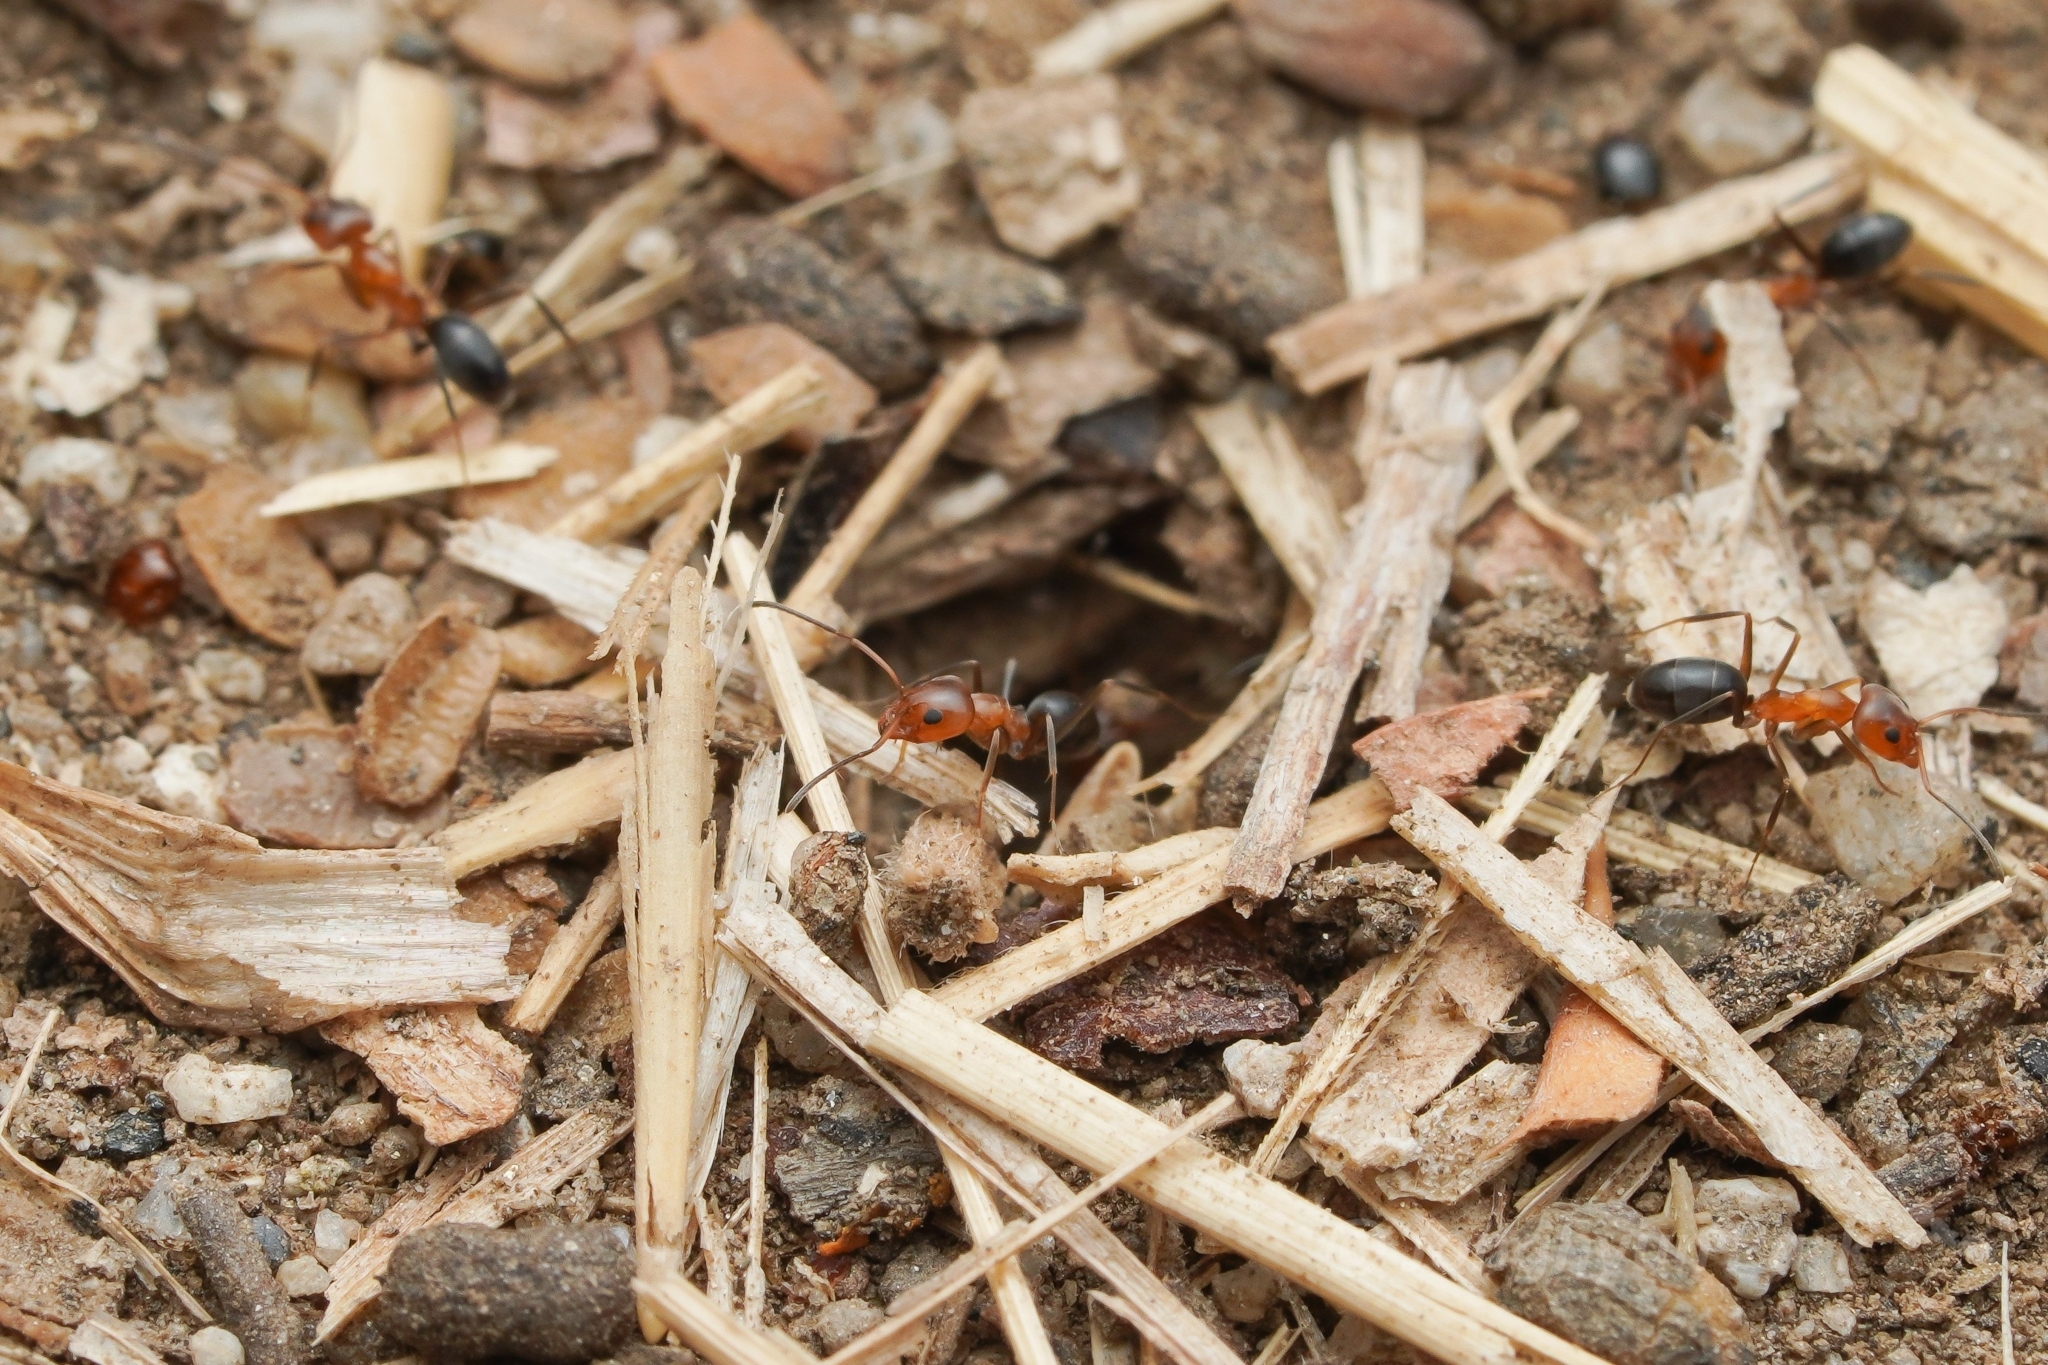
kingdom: Animalia
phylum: Arthropoda
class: Insecta
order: Hymenoptera
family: Formicidae
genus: Dorymyrmex
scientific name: Dorymyrmex bicolor
